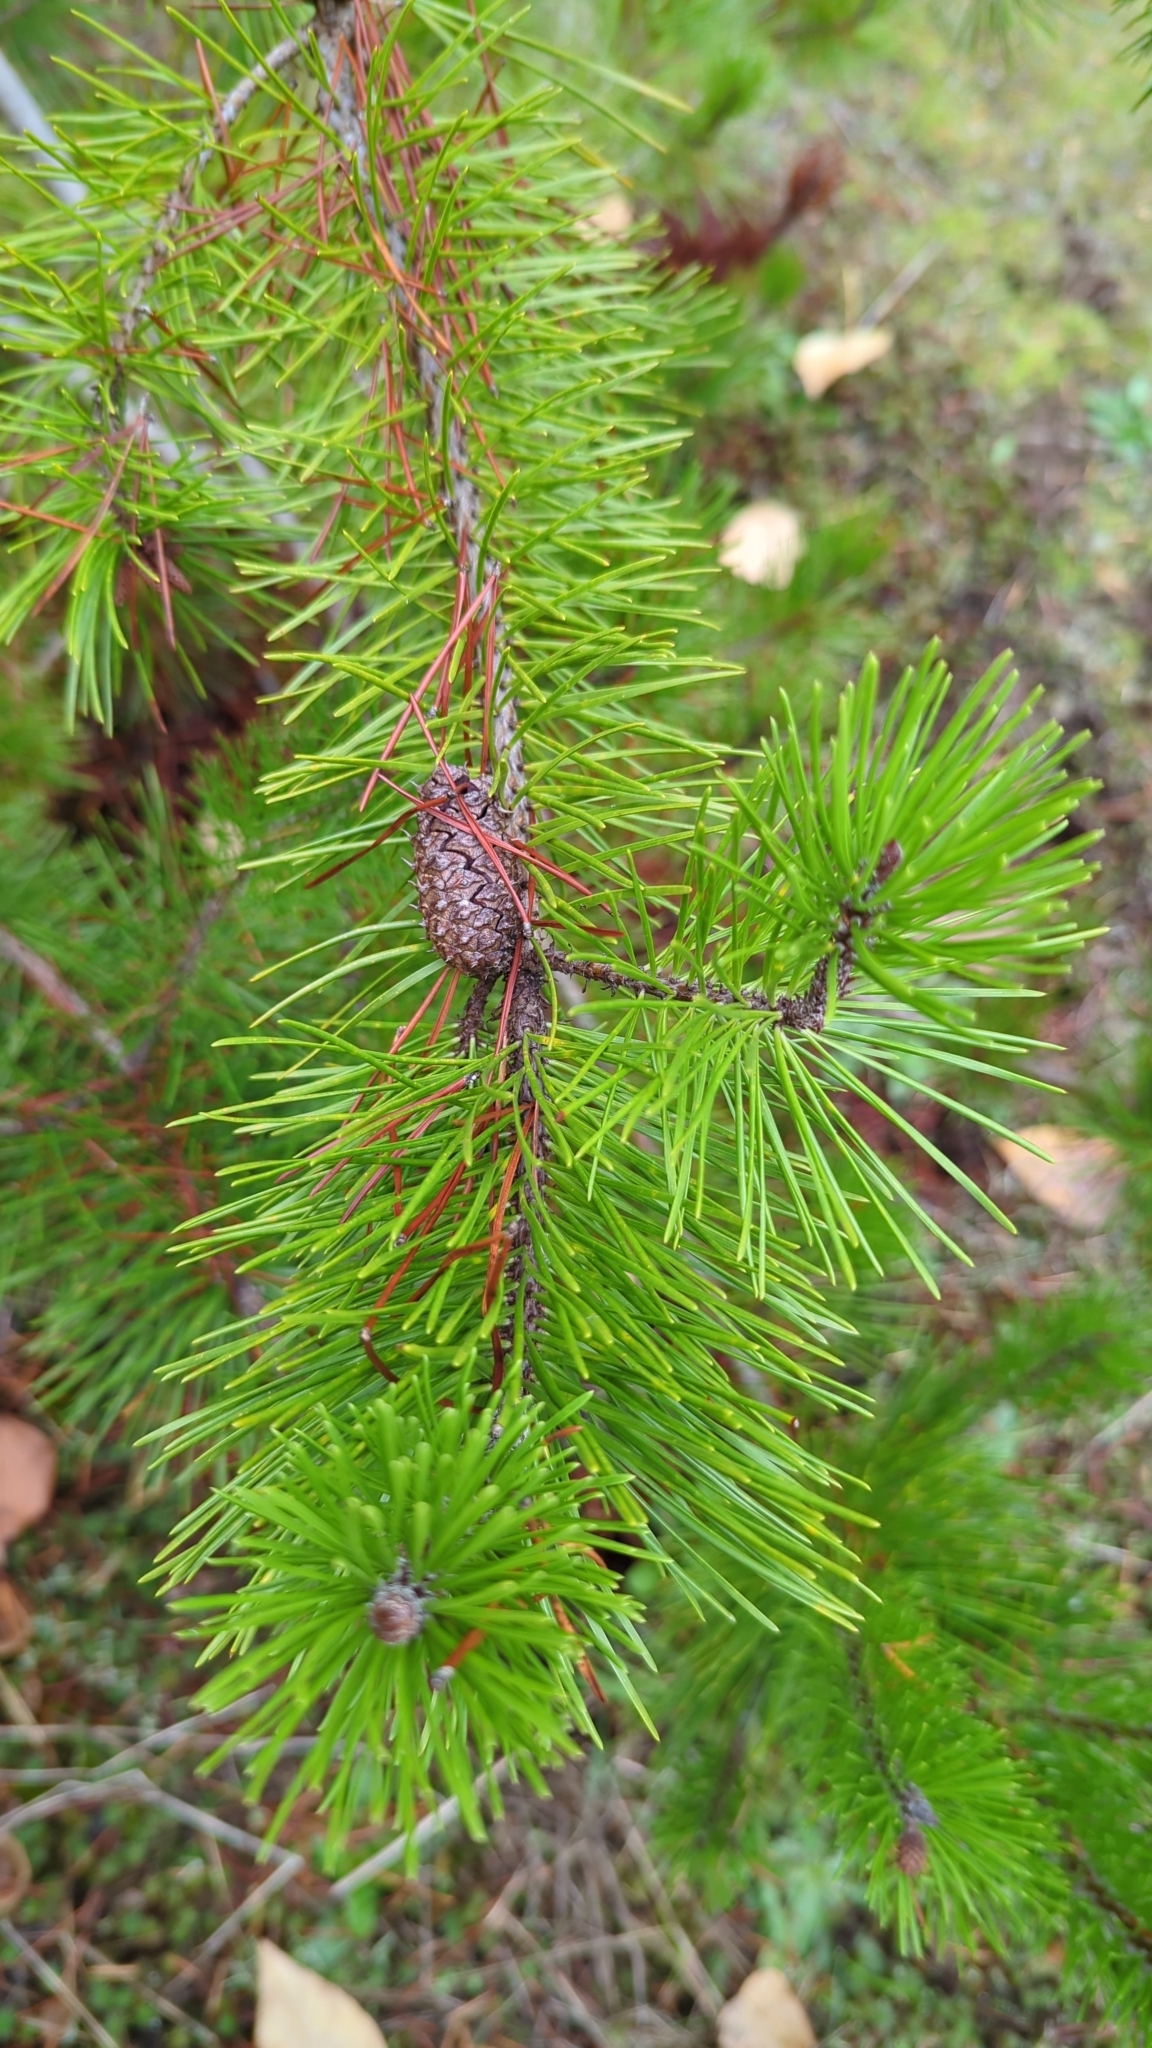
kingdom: Plantae
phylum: Tracheophyta
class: Pinopsida
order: Pinales
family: Pinaceae
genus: Pinus
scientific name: Pinus contorta
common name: Lodgepole pine
